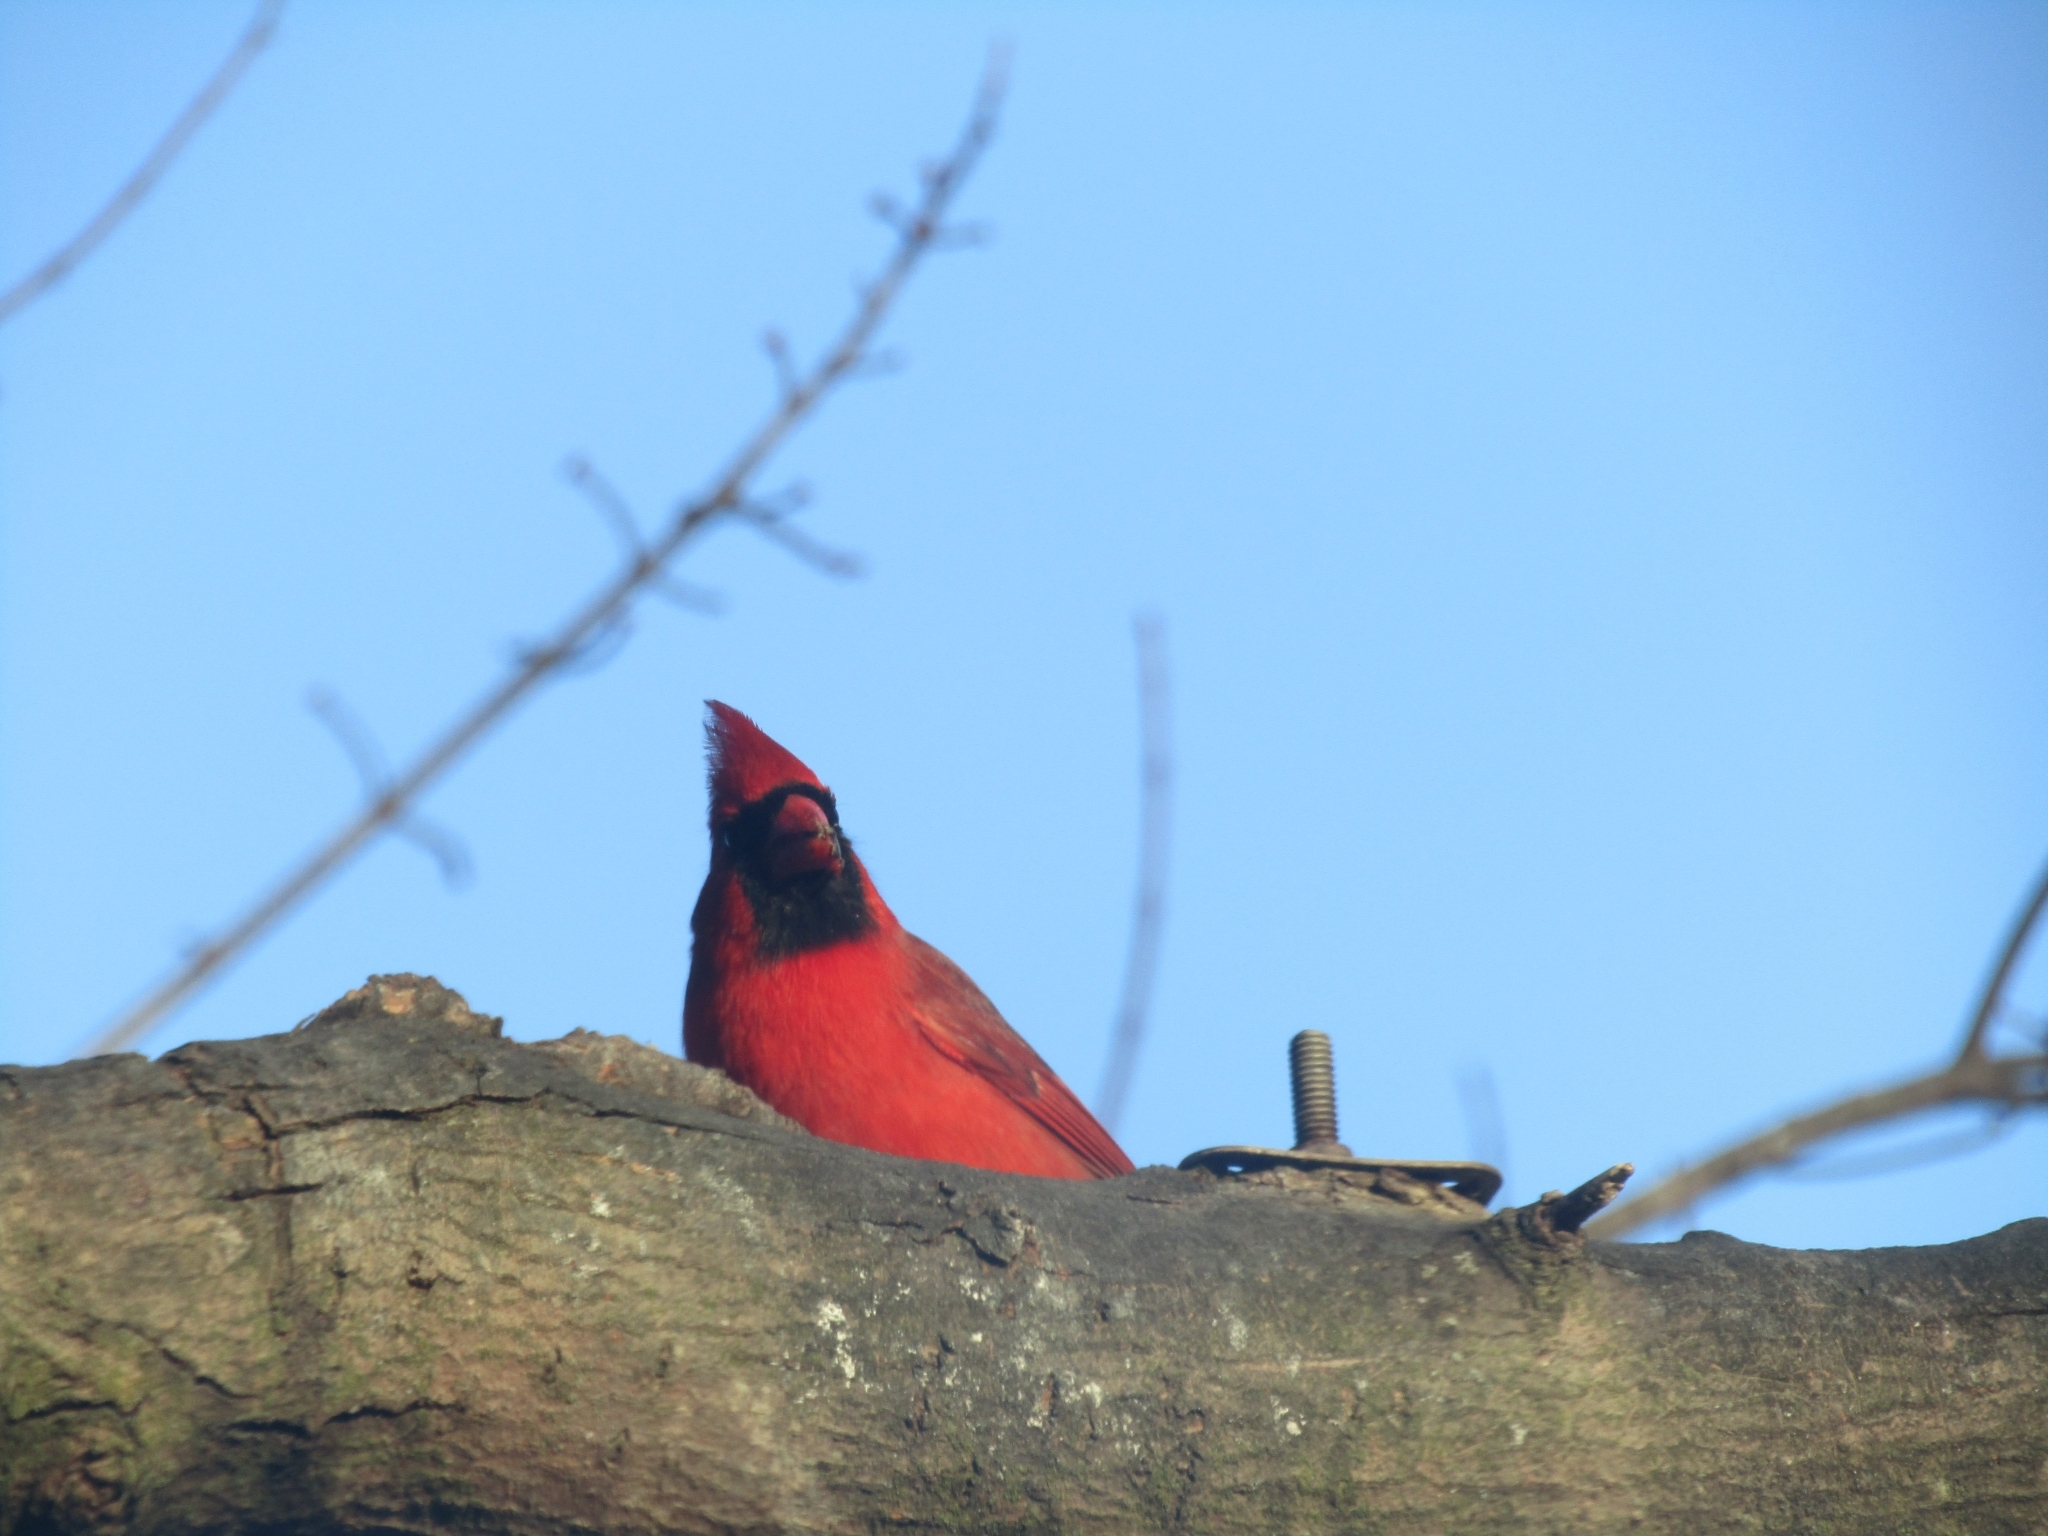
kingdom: Animalia
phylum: Chordata
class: Aves
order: Passeriformes
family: Cardinalidae
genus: Cardinalis
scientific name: Cardinalis cardinalis
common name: Northern cardinal
